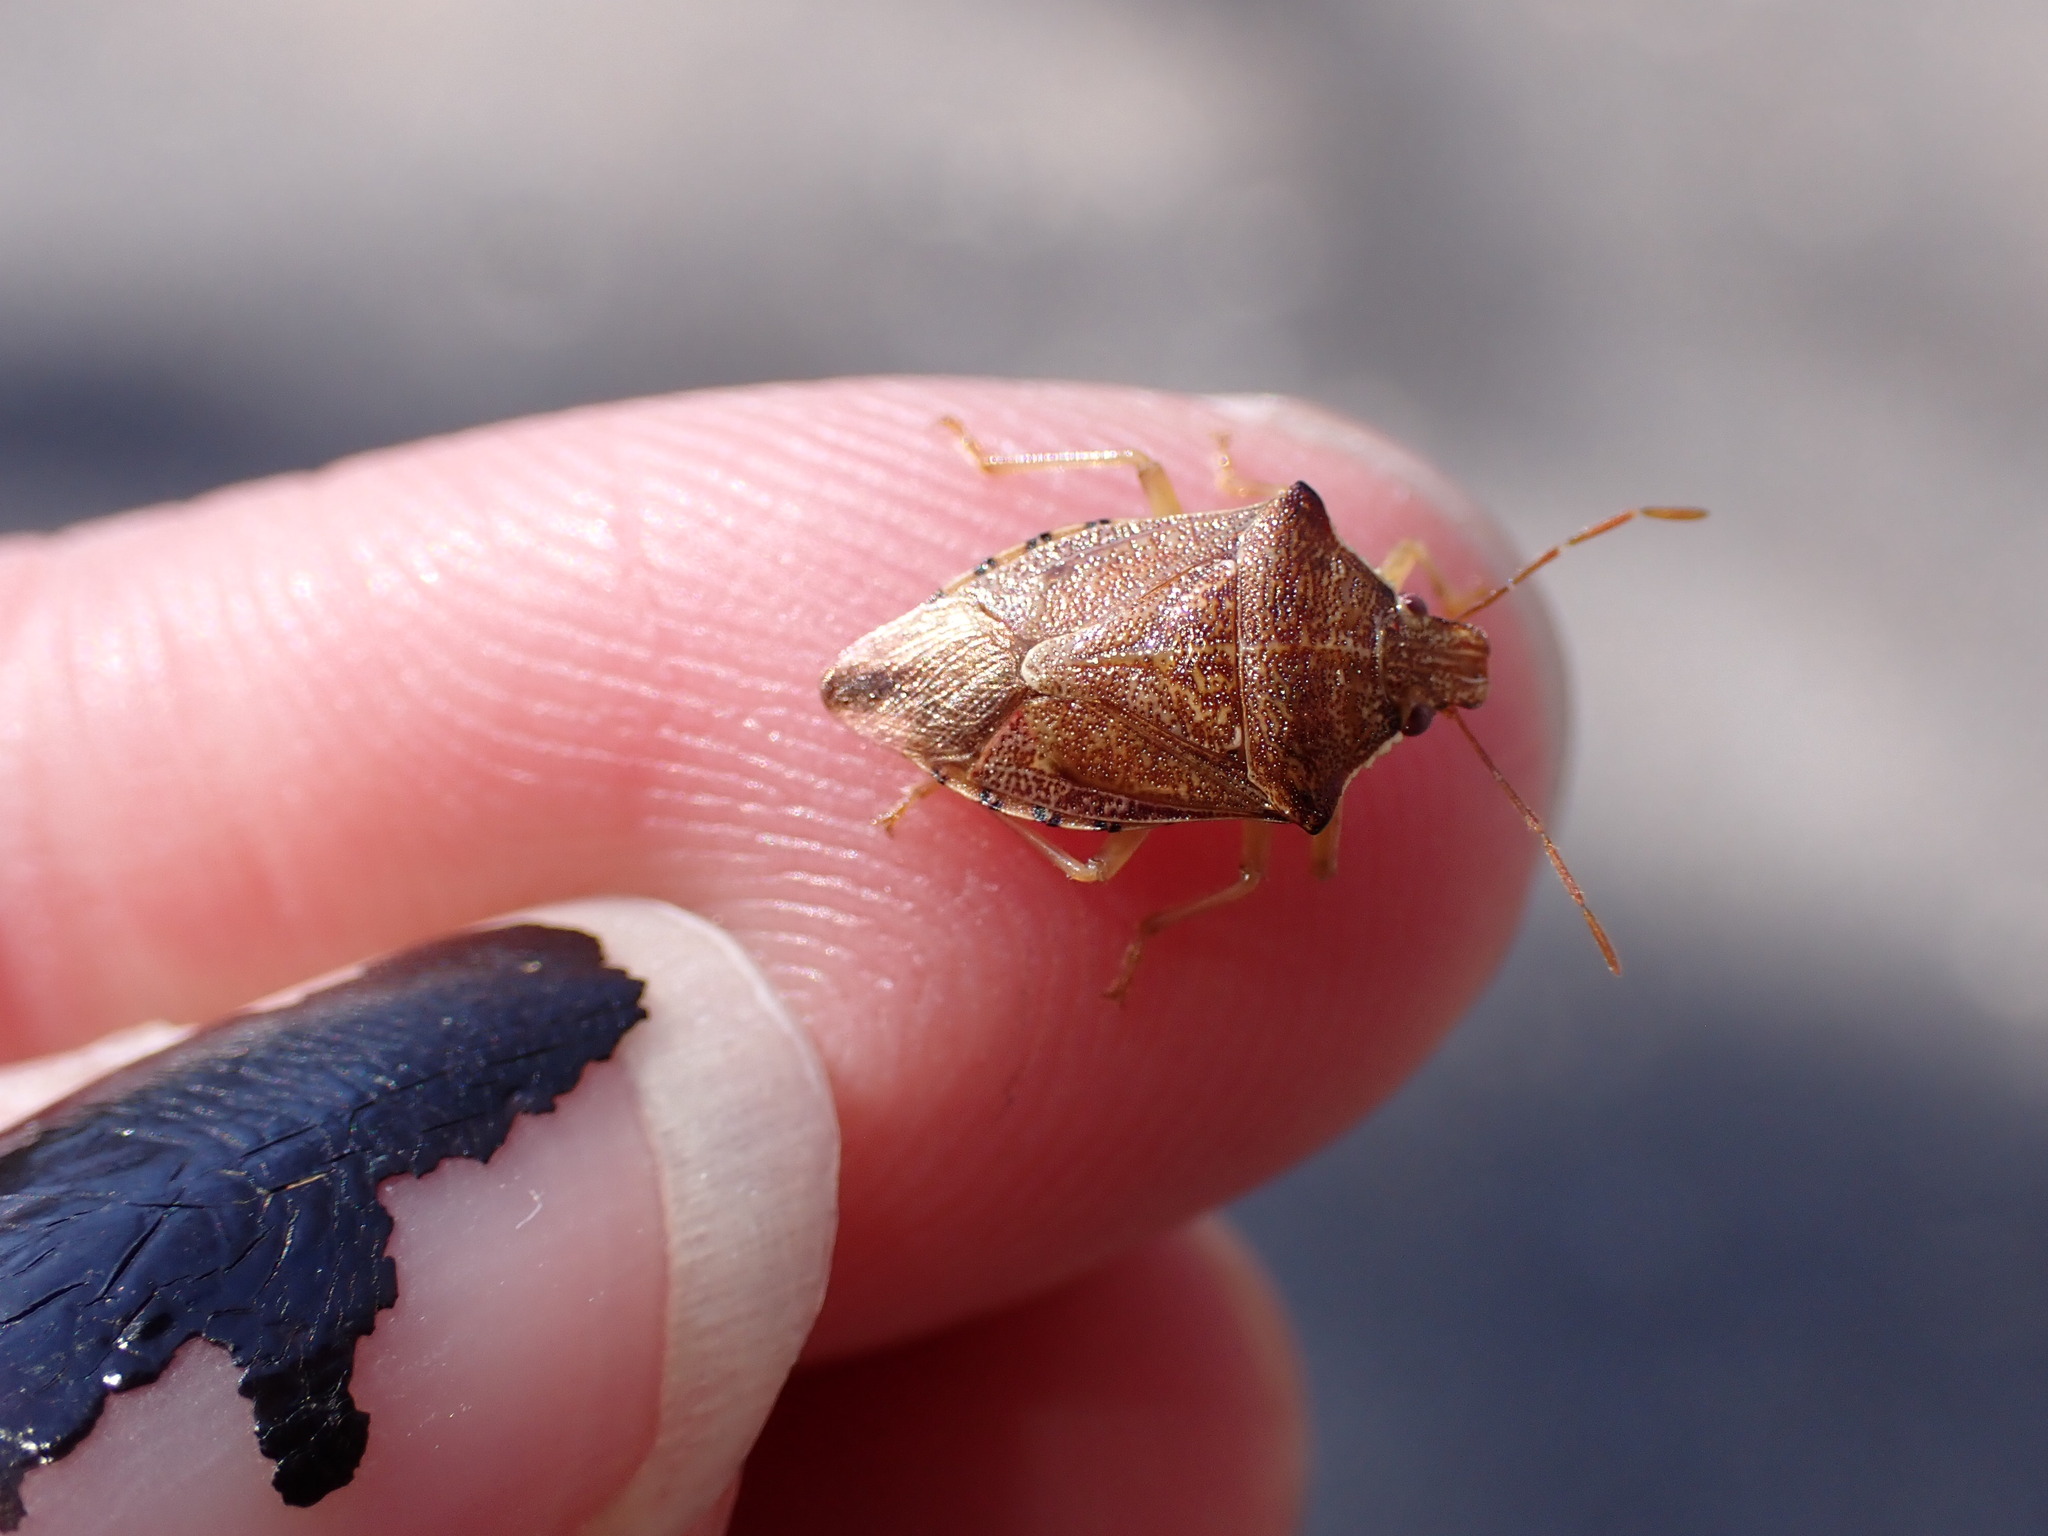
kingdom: Animalia
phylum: Arthropoda
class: Insecta
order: Hemiptera
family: Pentatomidae
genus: Podisus
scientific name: Podisus
